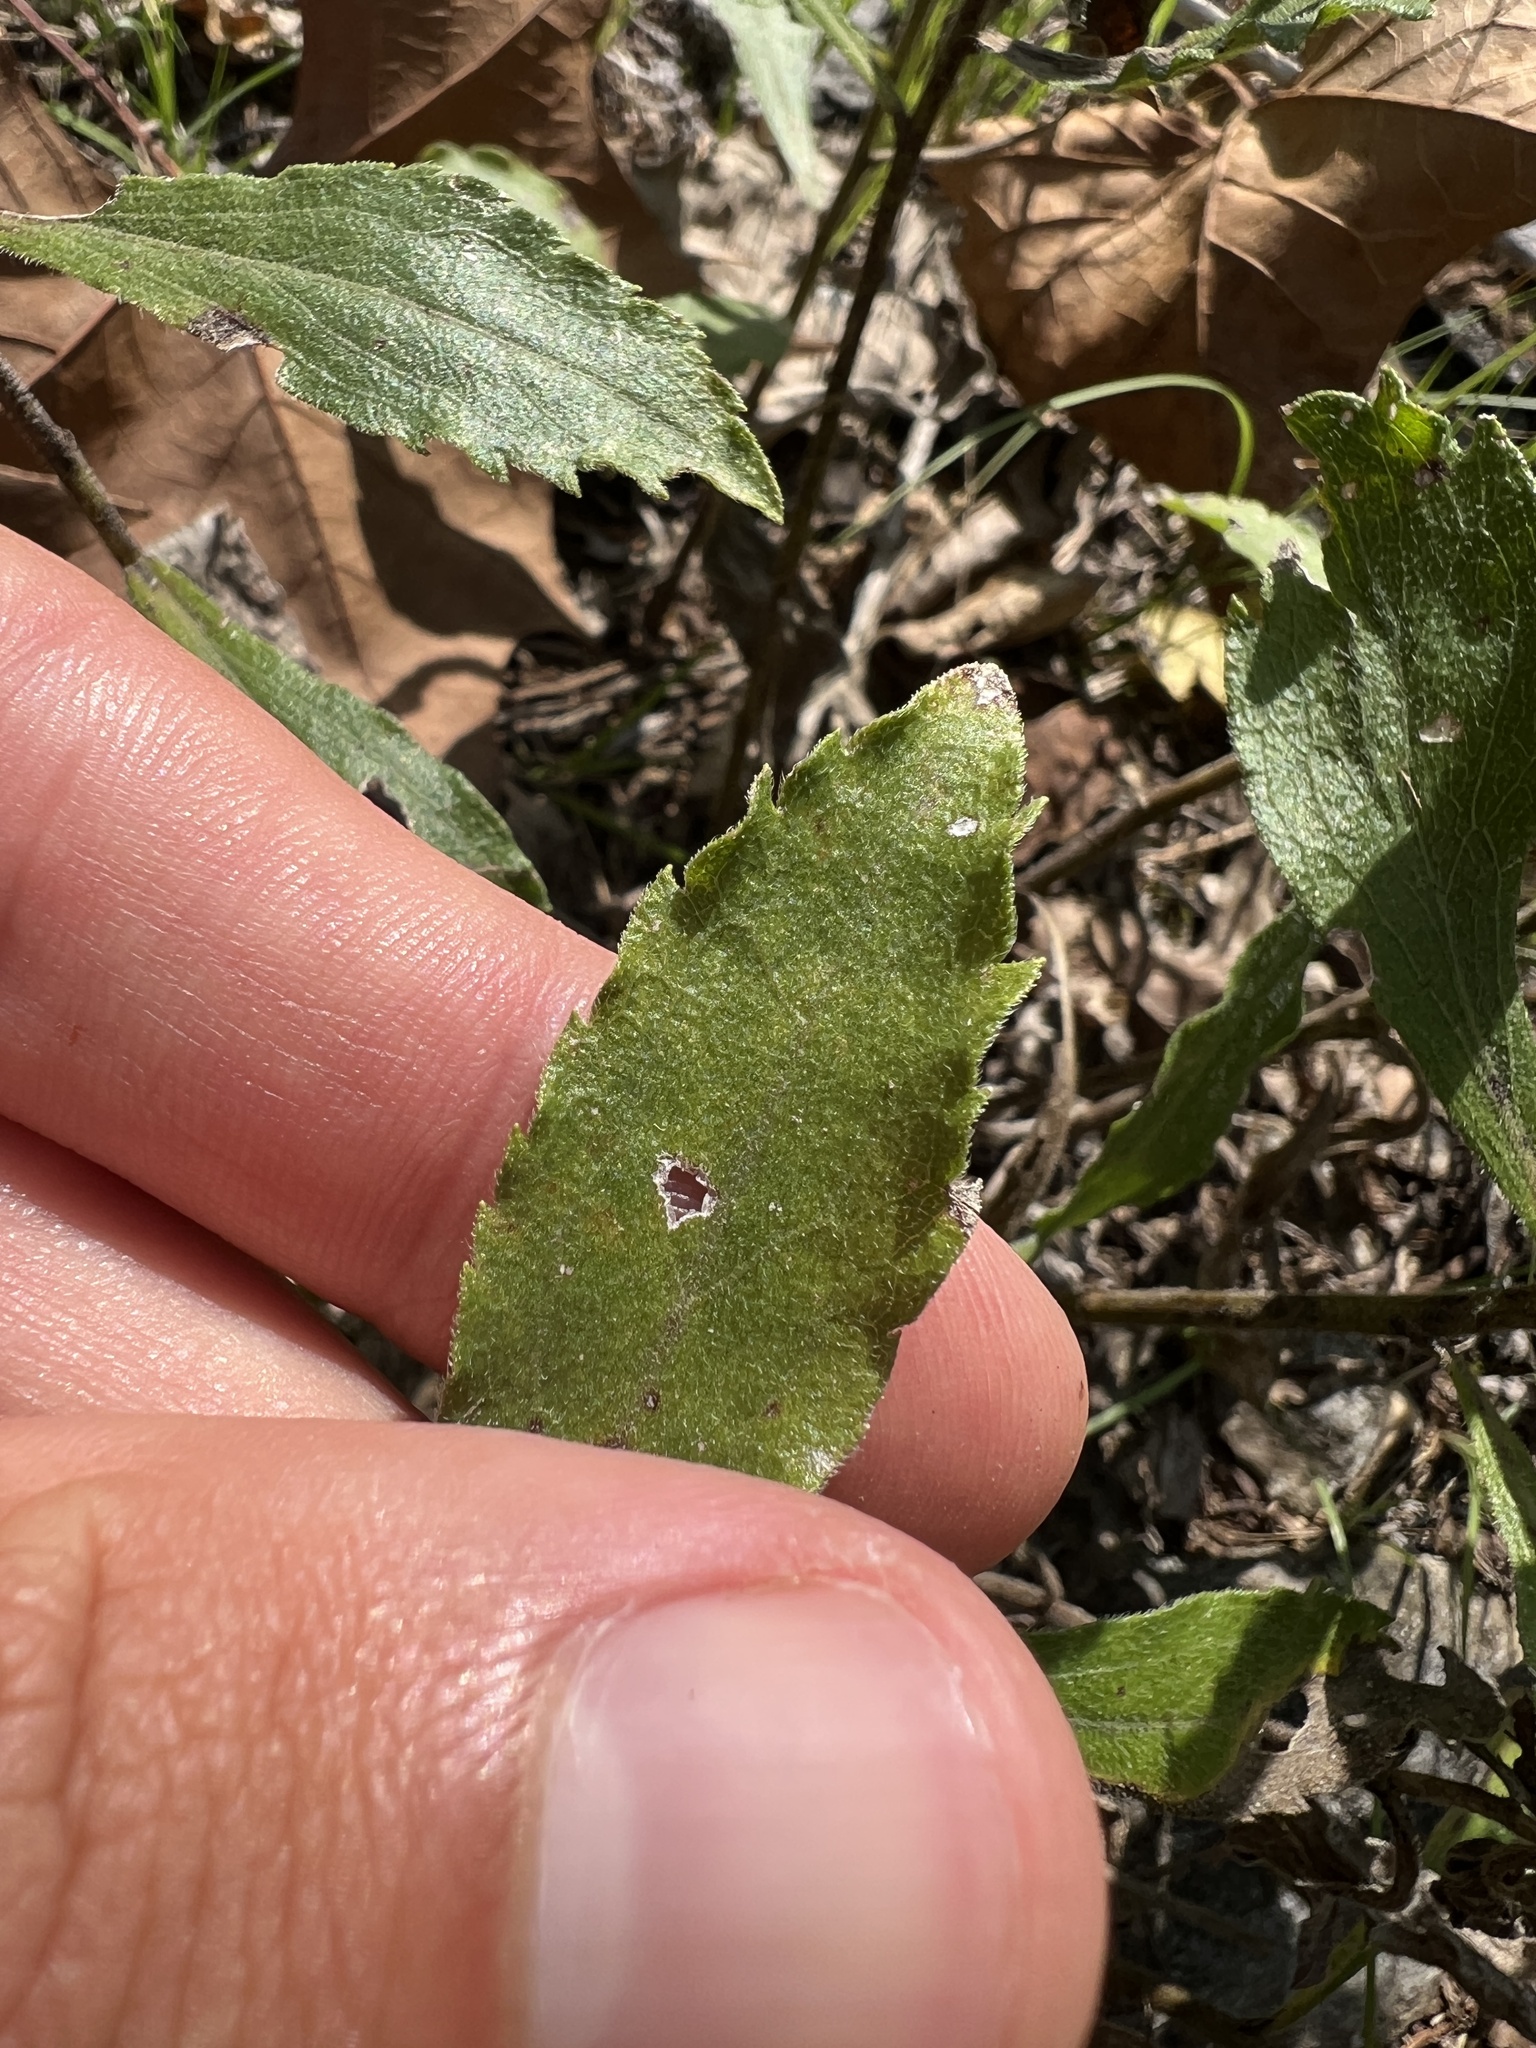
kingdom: Plantae
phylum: Tracheophyta
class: Magnoliopsida
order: Asterales
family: Asteraceae
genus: Solidago
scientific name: Solidago radula
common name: Western rough goldenrod
